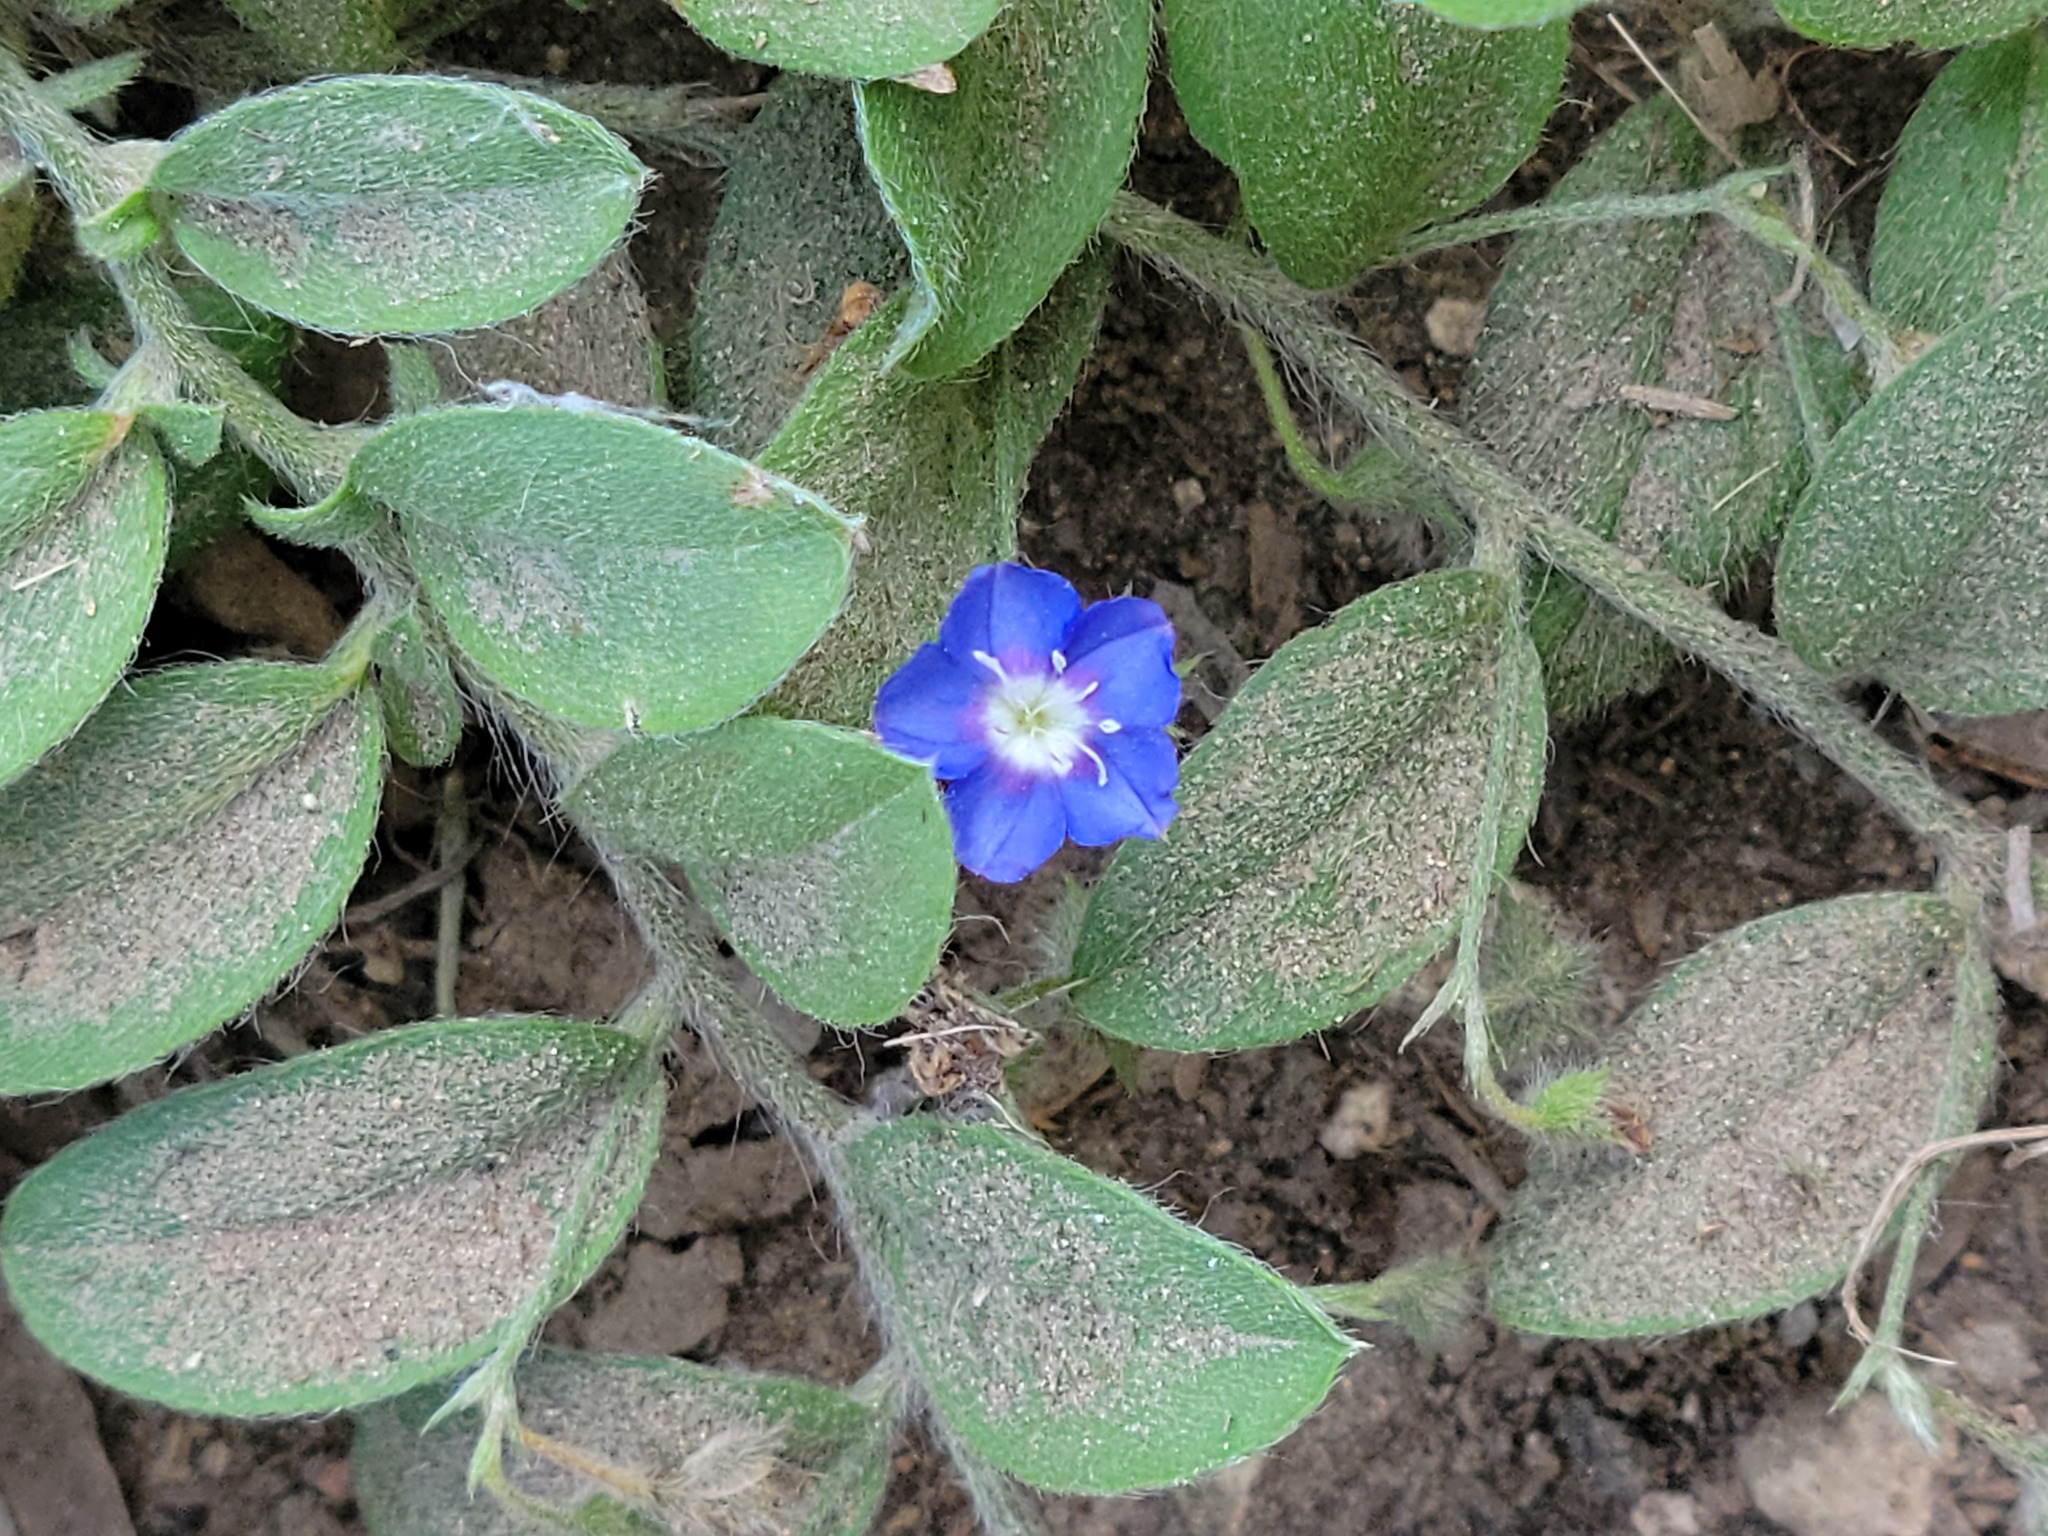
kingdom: Plantae
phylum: Tracheophyta
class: Magnoliopsida
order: Solanales
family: Convolvulaceae
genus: Evolvulus
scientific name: Evolvulus alsinoides
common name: Slender dwarf morning-glory
